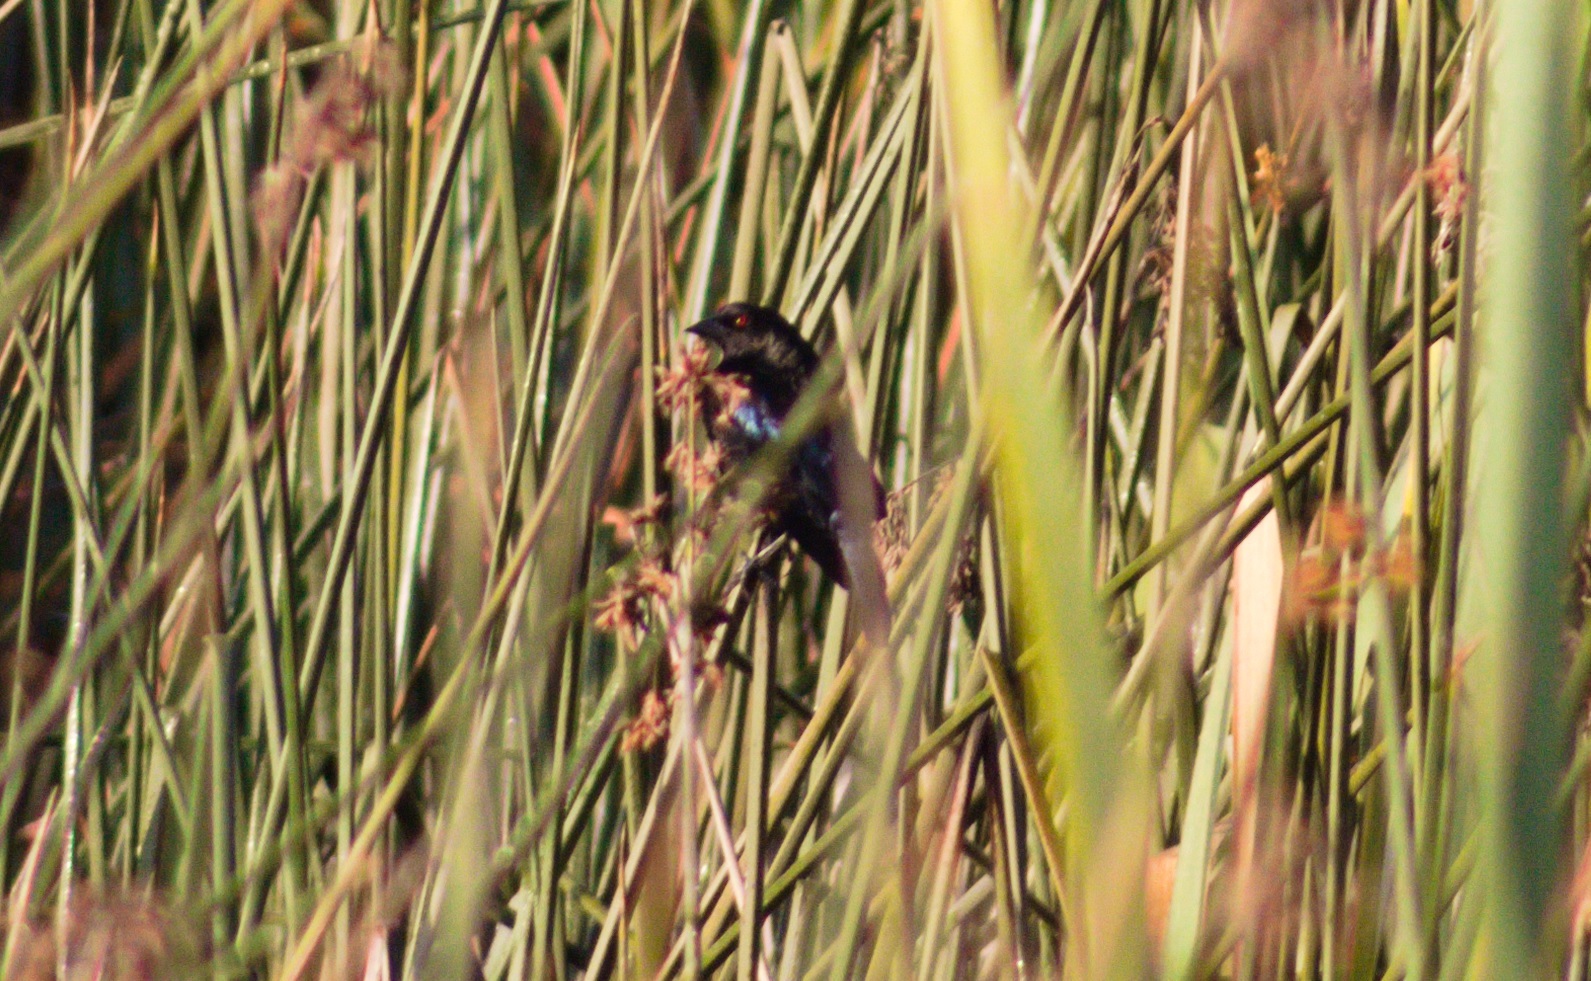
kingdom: Animalia
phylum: Chordata
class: Aves
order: Passeriformes
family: Icteridae
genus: Molothrus
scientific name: Molothrus aeneus
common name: Bronzed cowbird
